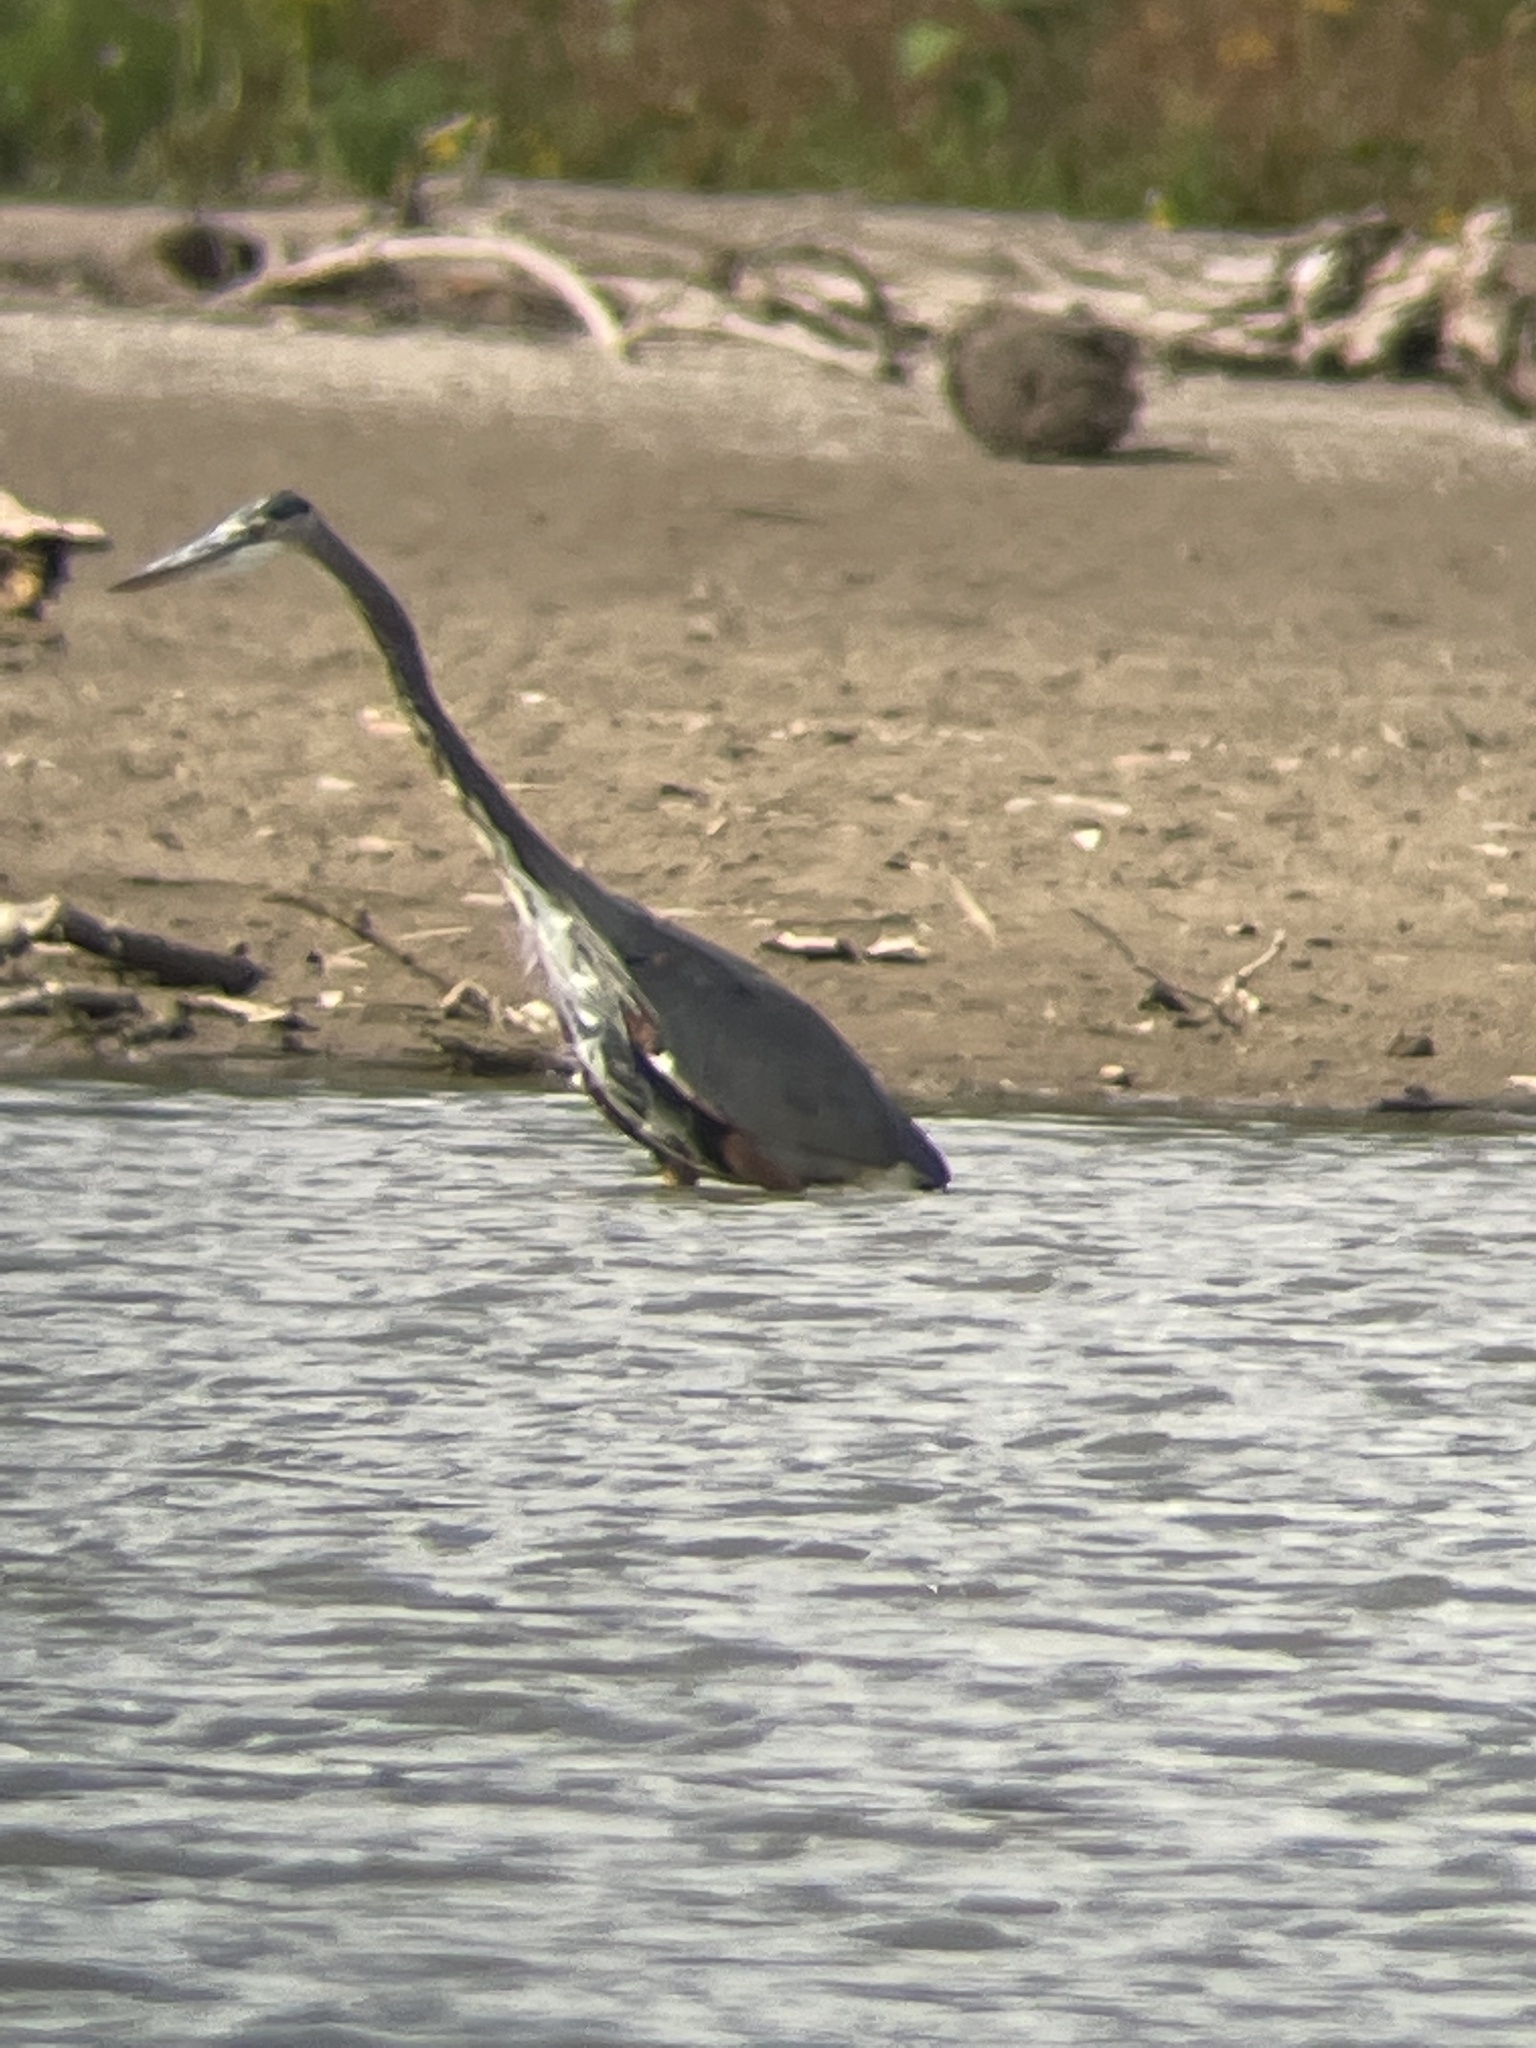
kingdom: Animalia
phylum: Chordata
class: Aves
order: Pelecaniformes
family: Ardeidae
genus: Ardea
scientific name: Ardea herodias
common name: Great blue heron
